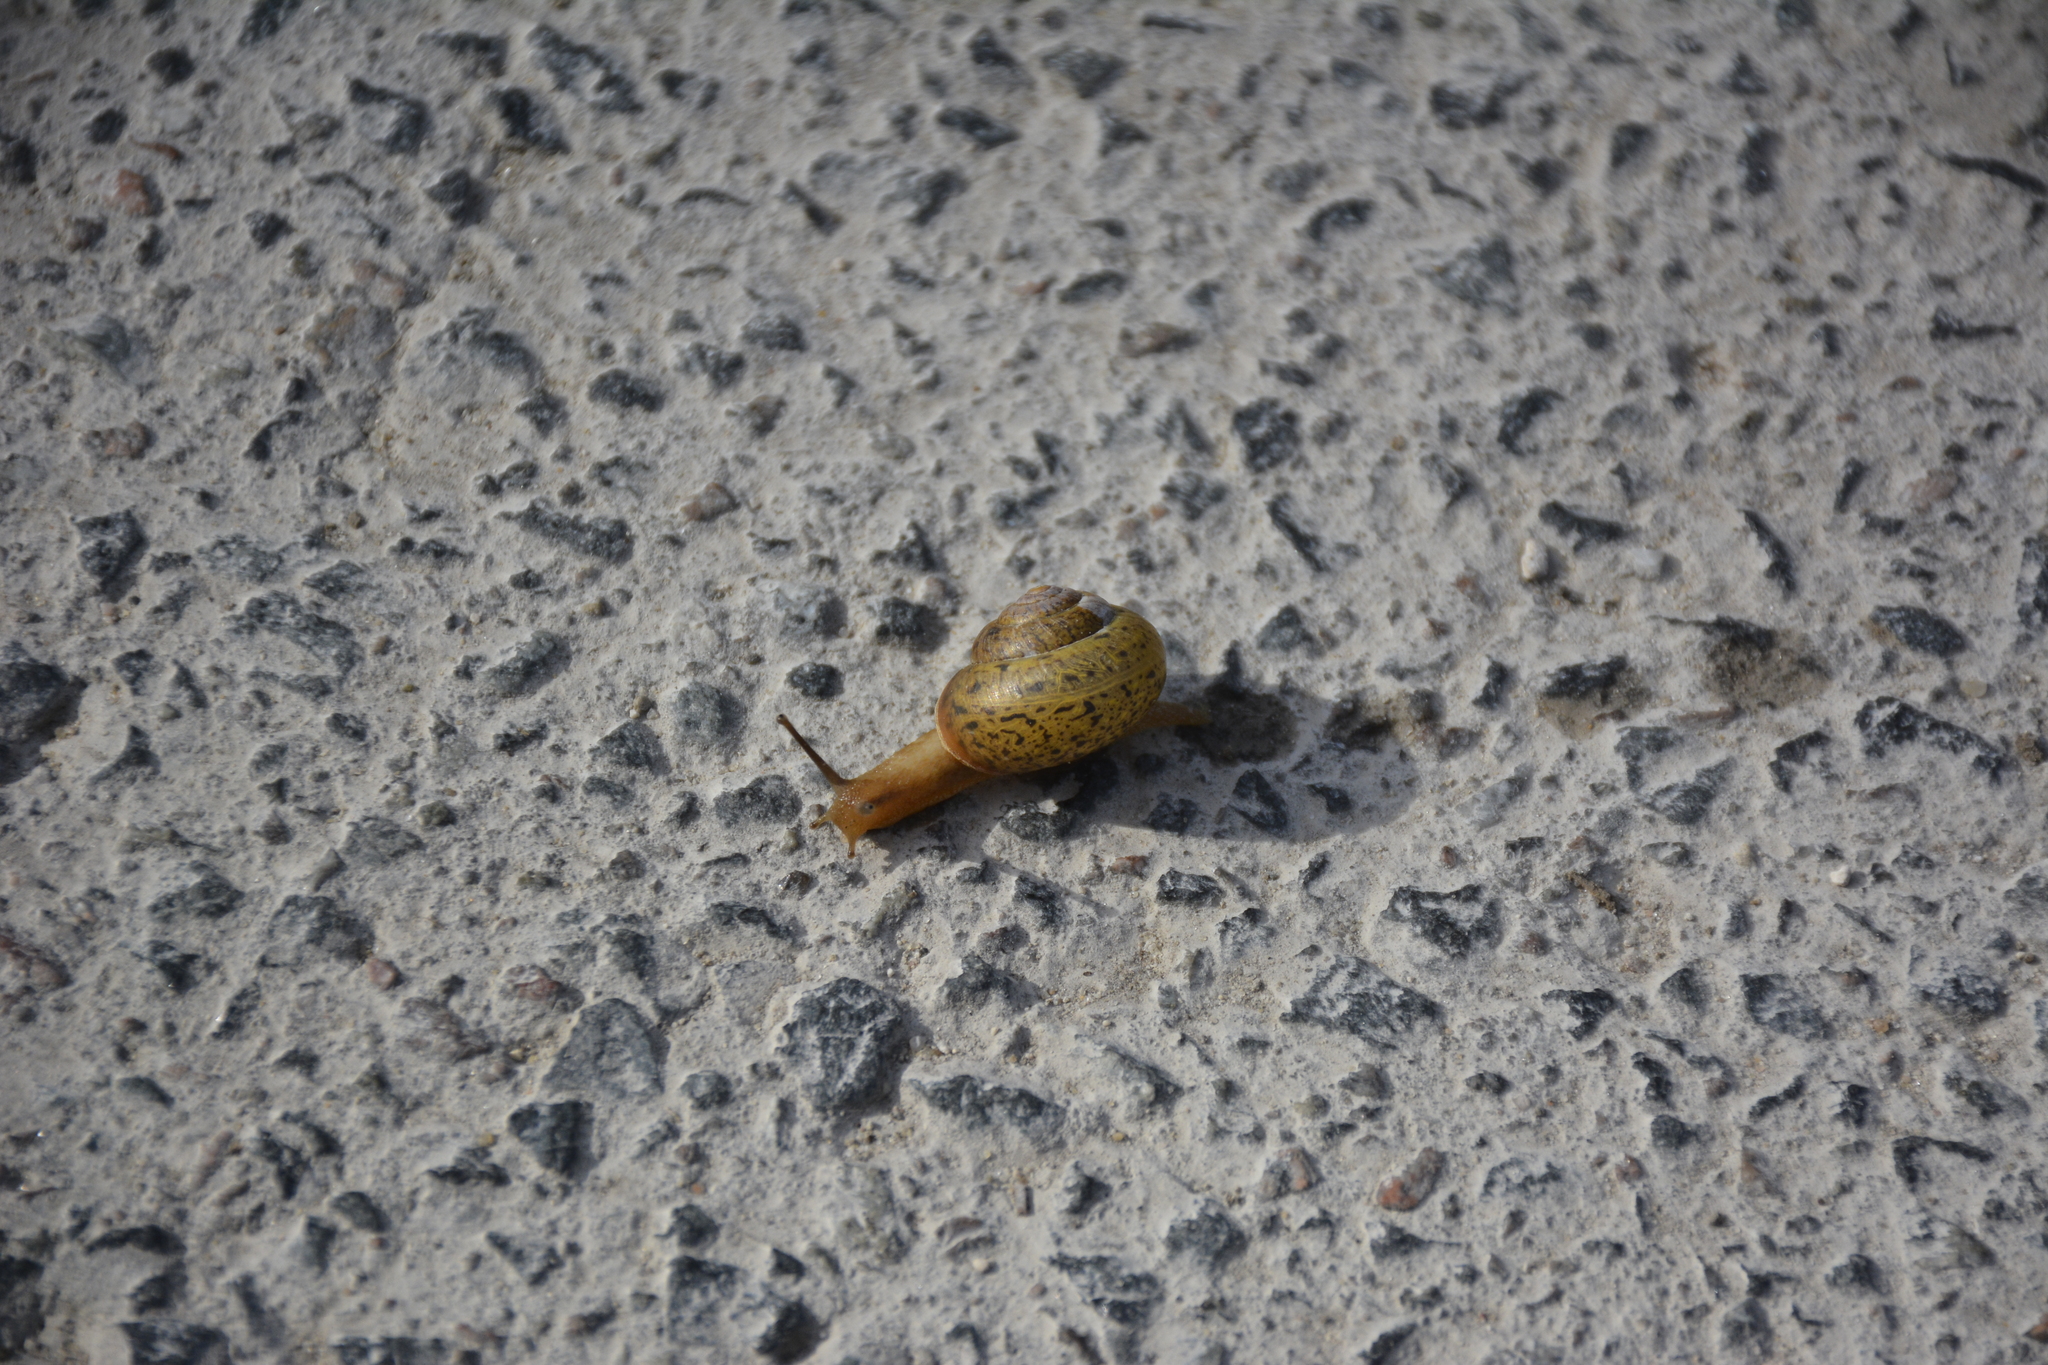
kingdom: Animalia
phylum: Mollusca
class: Gastropoda
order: Stylommatophora
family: Camaenidae
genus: Fruticicola
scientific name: Fruticicola fruticum
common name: Bush snail
